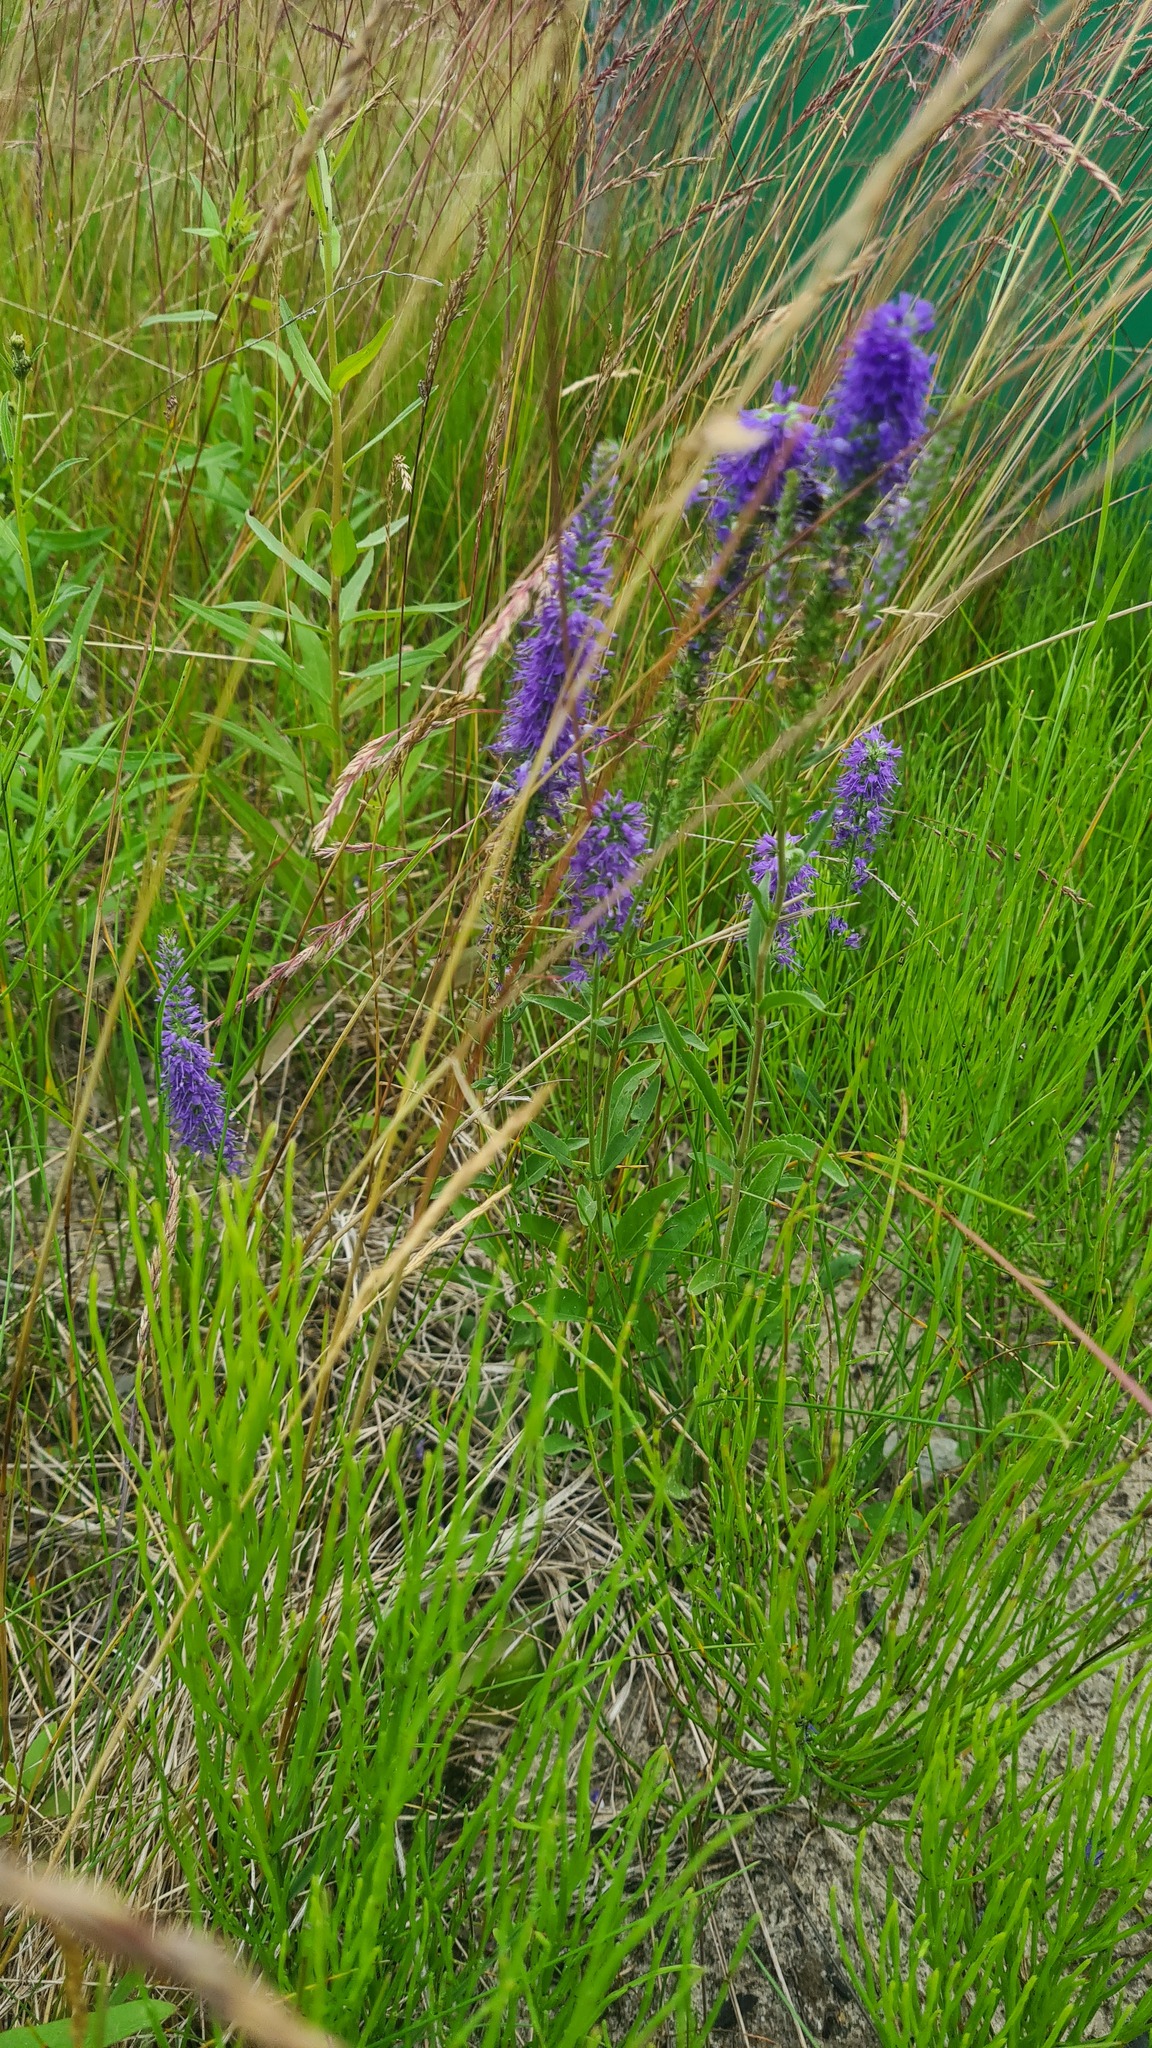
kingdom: Plantae
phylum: Tracheophyta
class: Magnoliopsida
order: Lamiales
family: Plantaginaceae
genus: Veronica
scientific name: Veronica spicata
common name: Spiked speedwell
